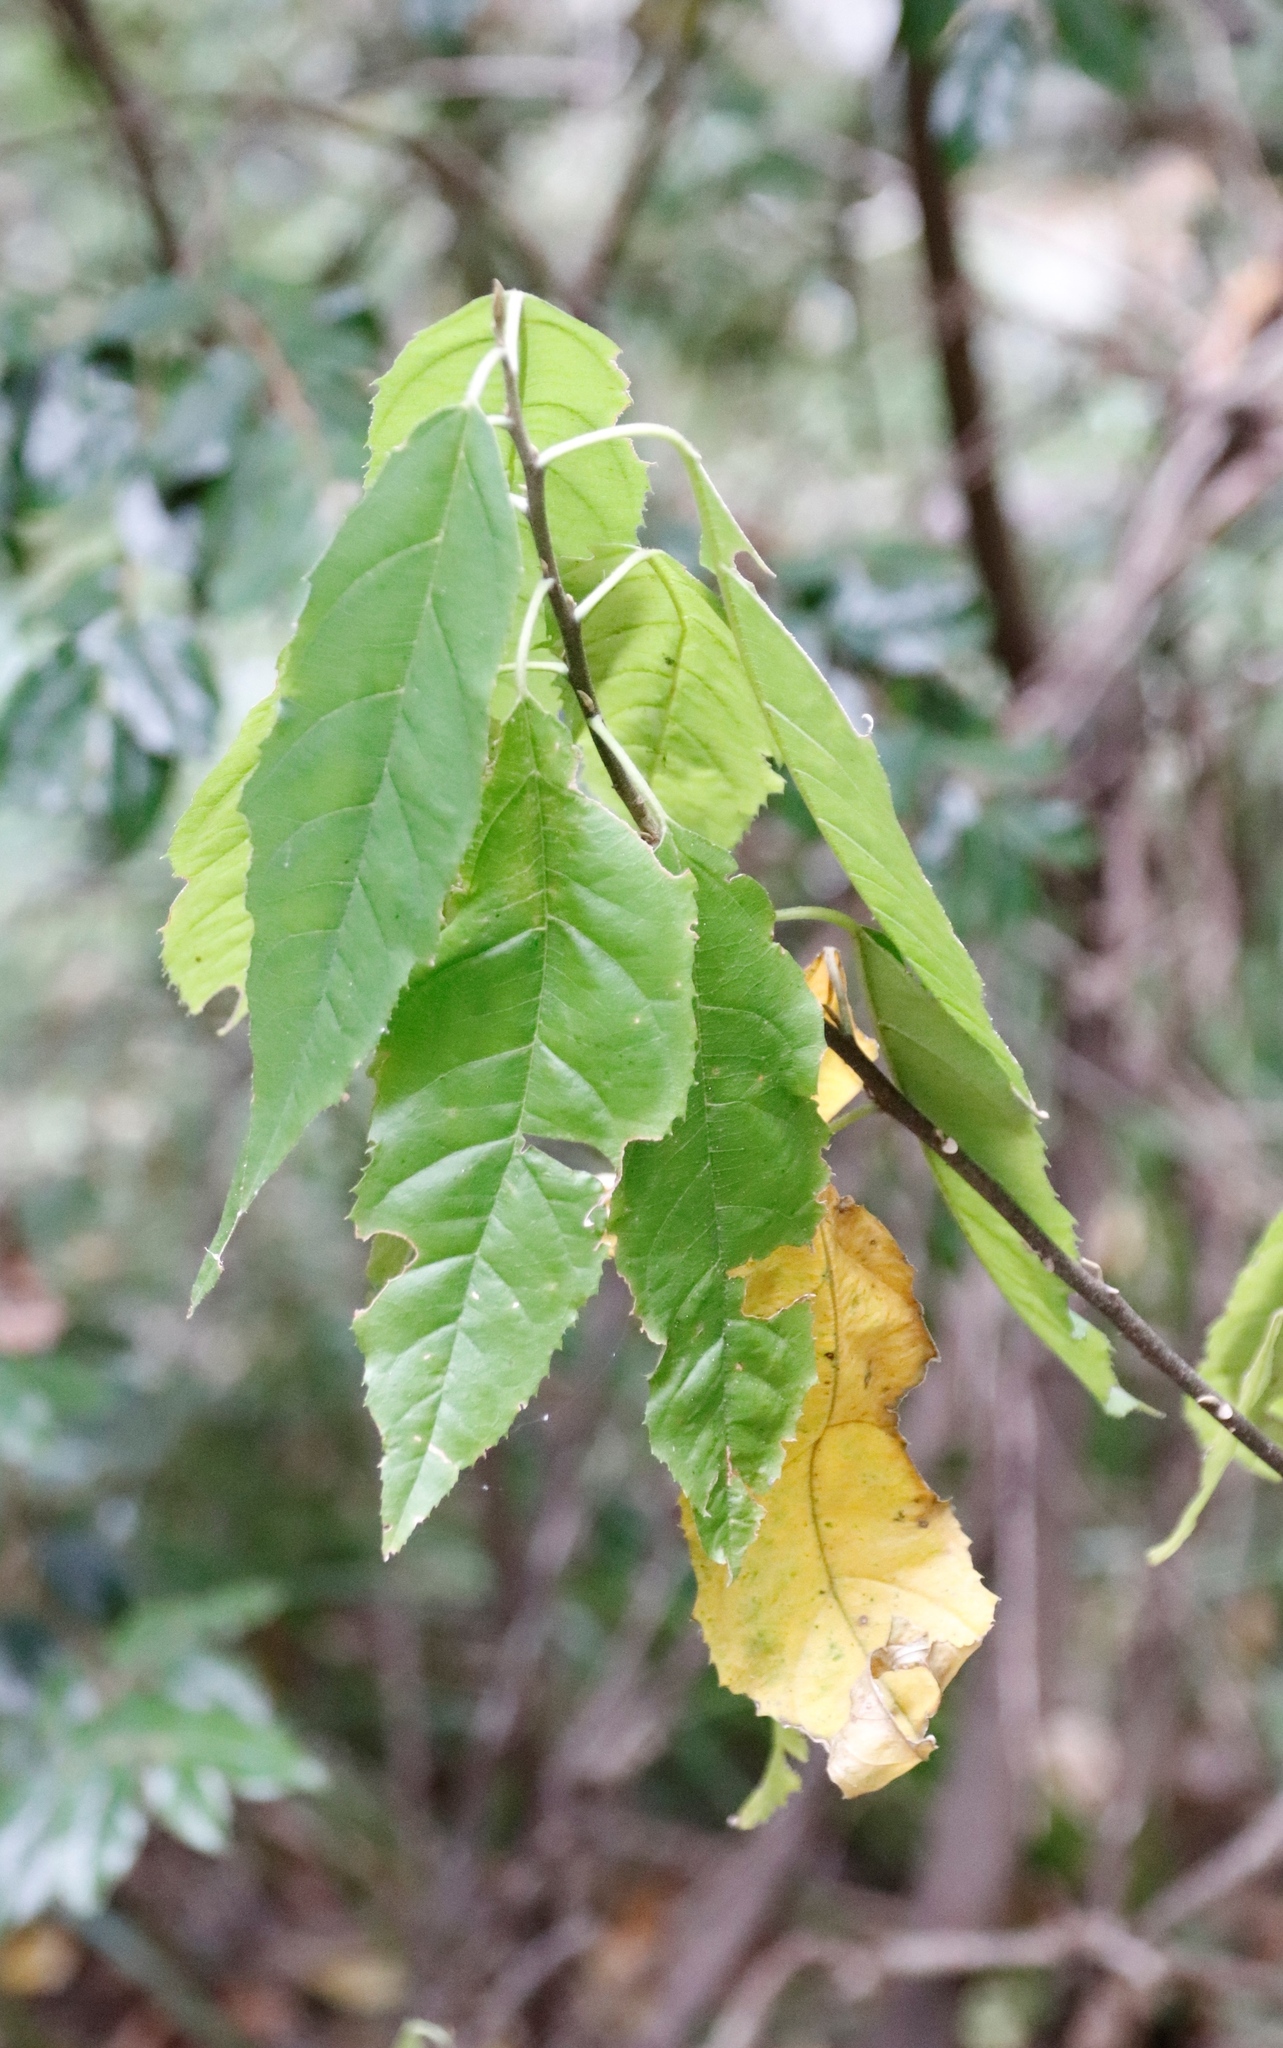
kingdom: Plantae
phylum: Tracheophyta
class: Magnoliopsida
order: Malpighiales
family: Achariaceae
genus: Kiggelaria
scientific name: Kiggelaria africana
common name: Wild peach
